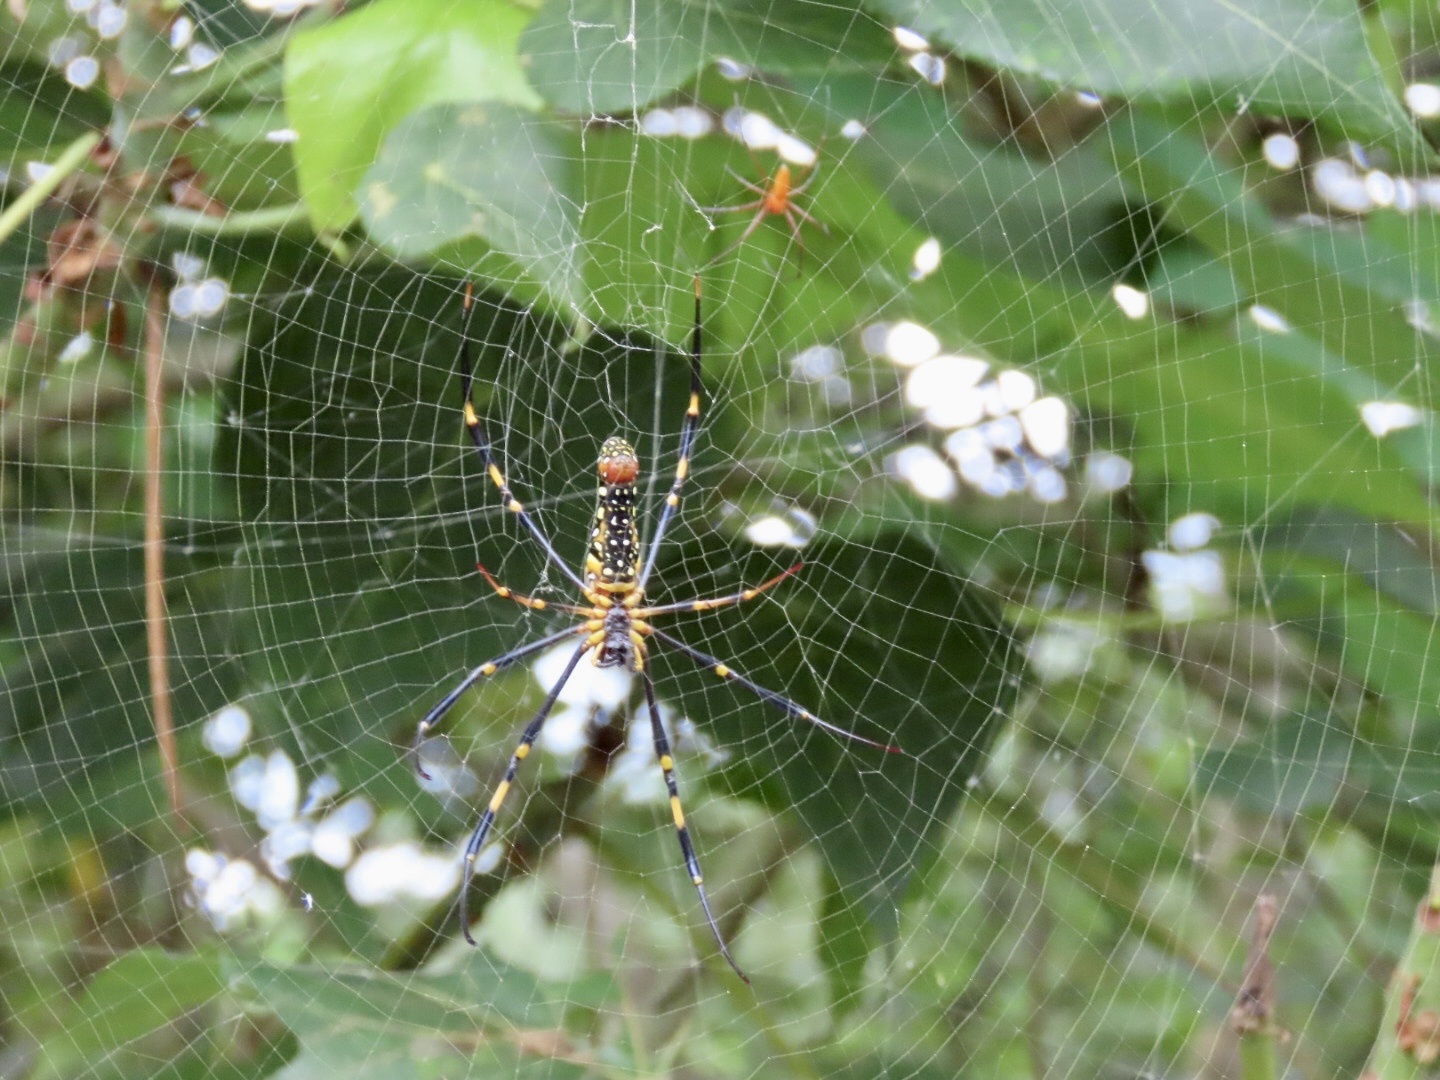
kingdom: Animalia
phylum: Arthropoda
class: Arachnida
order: Araneae
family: Araneidae
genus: Nephila
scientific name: Nephila pilipes
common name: Giant golden orb weaver
